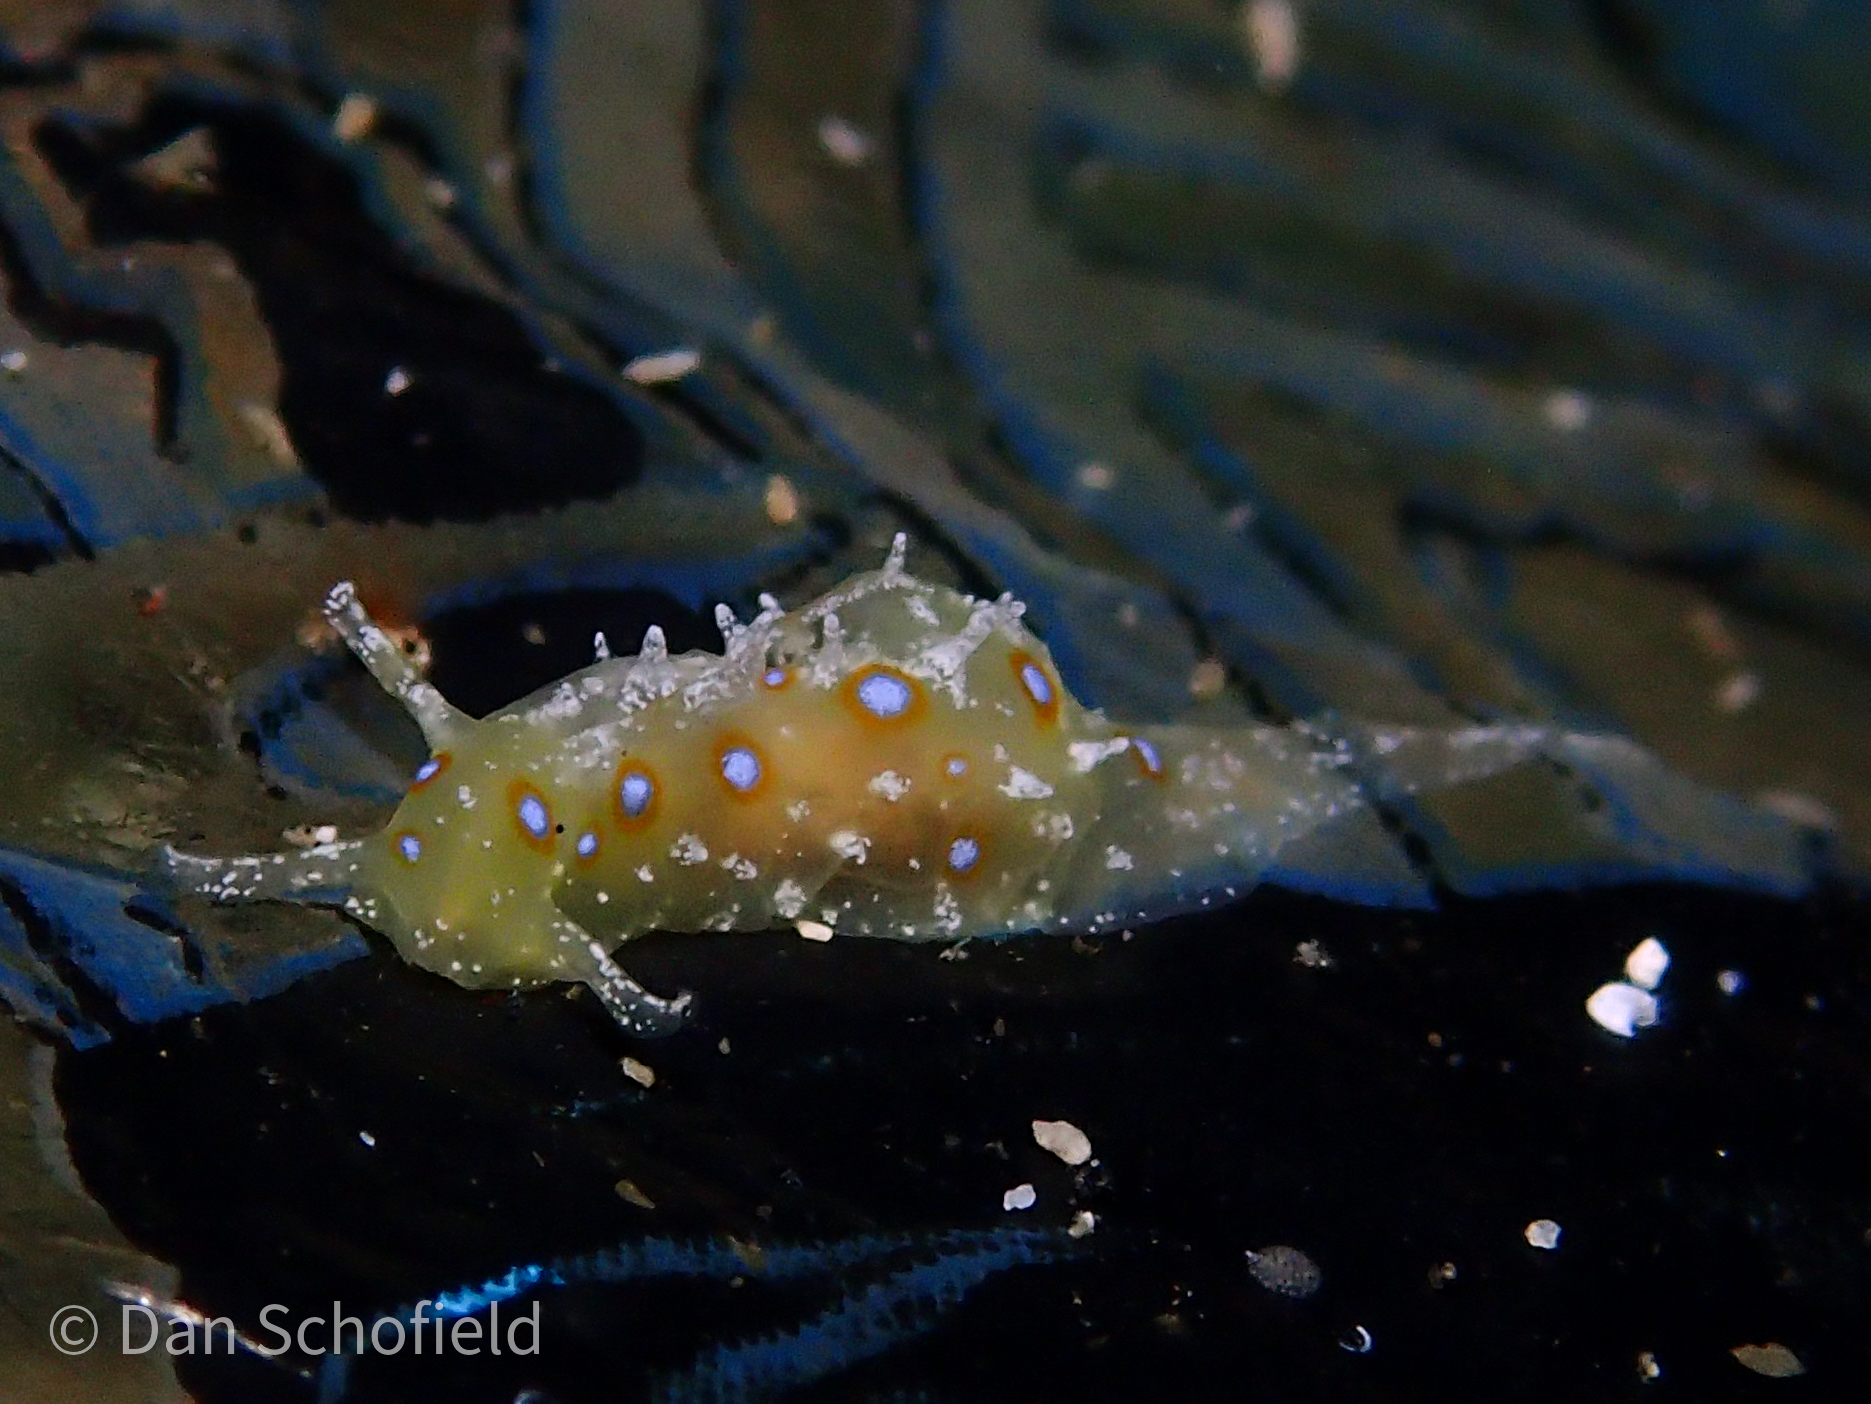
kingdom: Animalia
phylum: Mollusca
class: Gastropoda
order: Aplysiida
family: Aplysiidae
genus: Stylocheilus
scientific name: Stylocheilus longicauda
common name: Blue-ring sea hare
